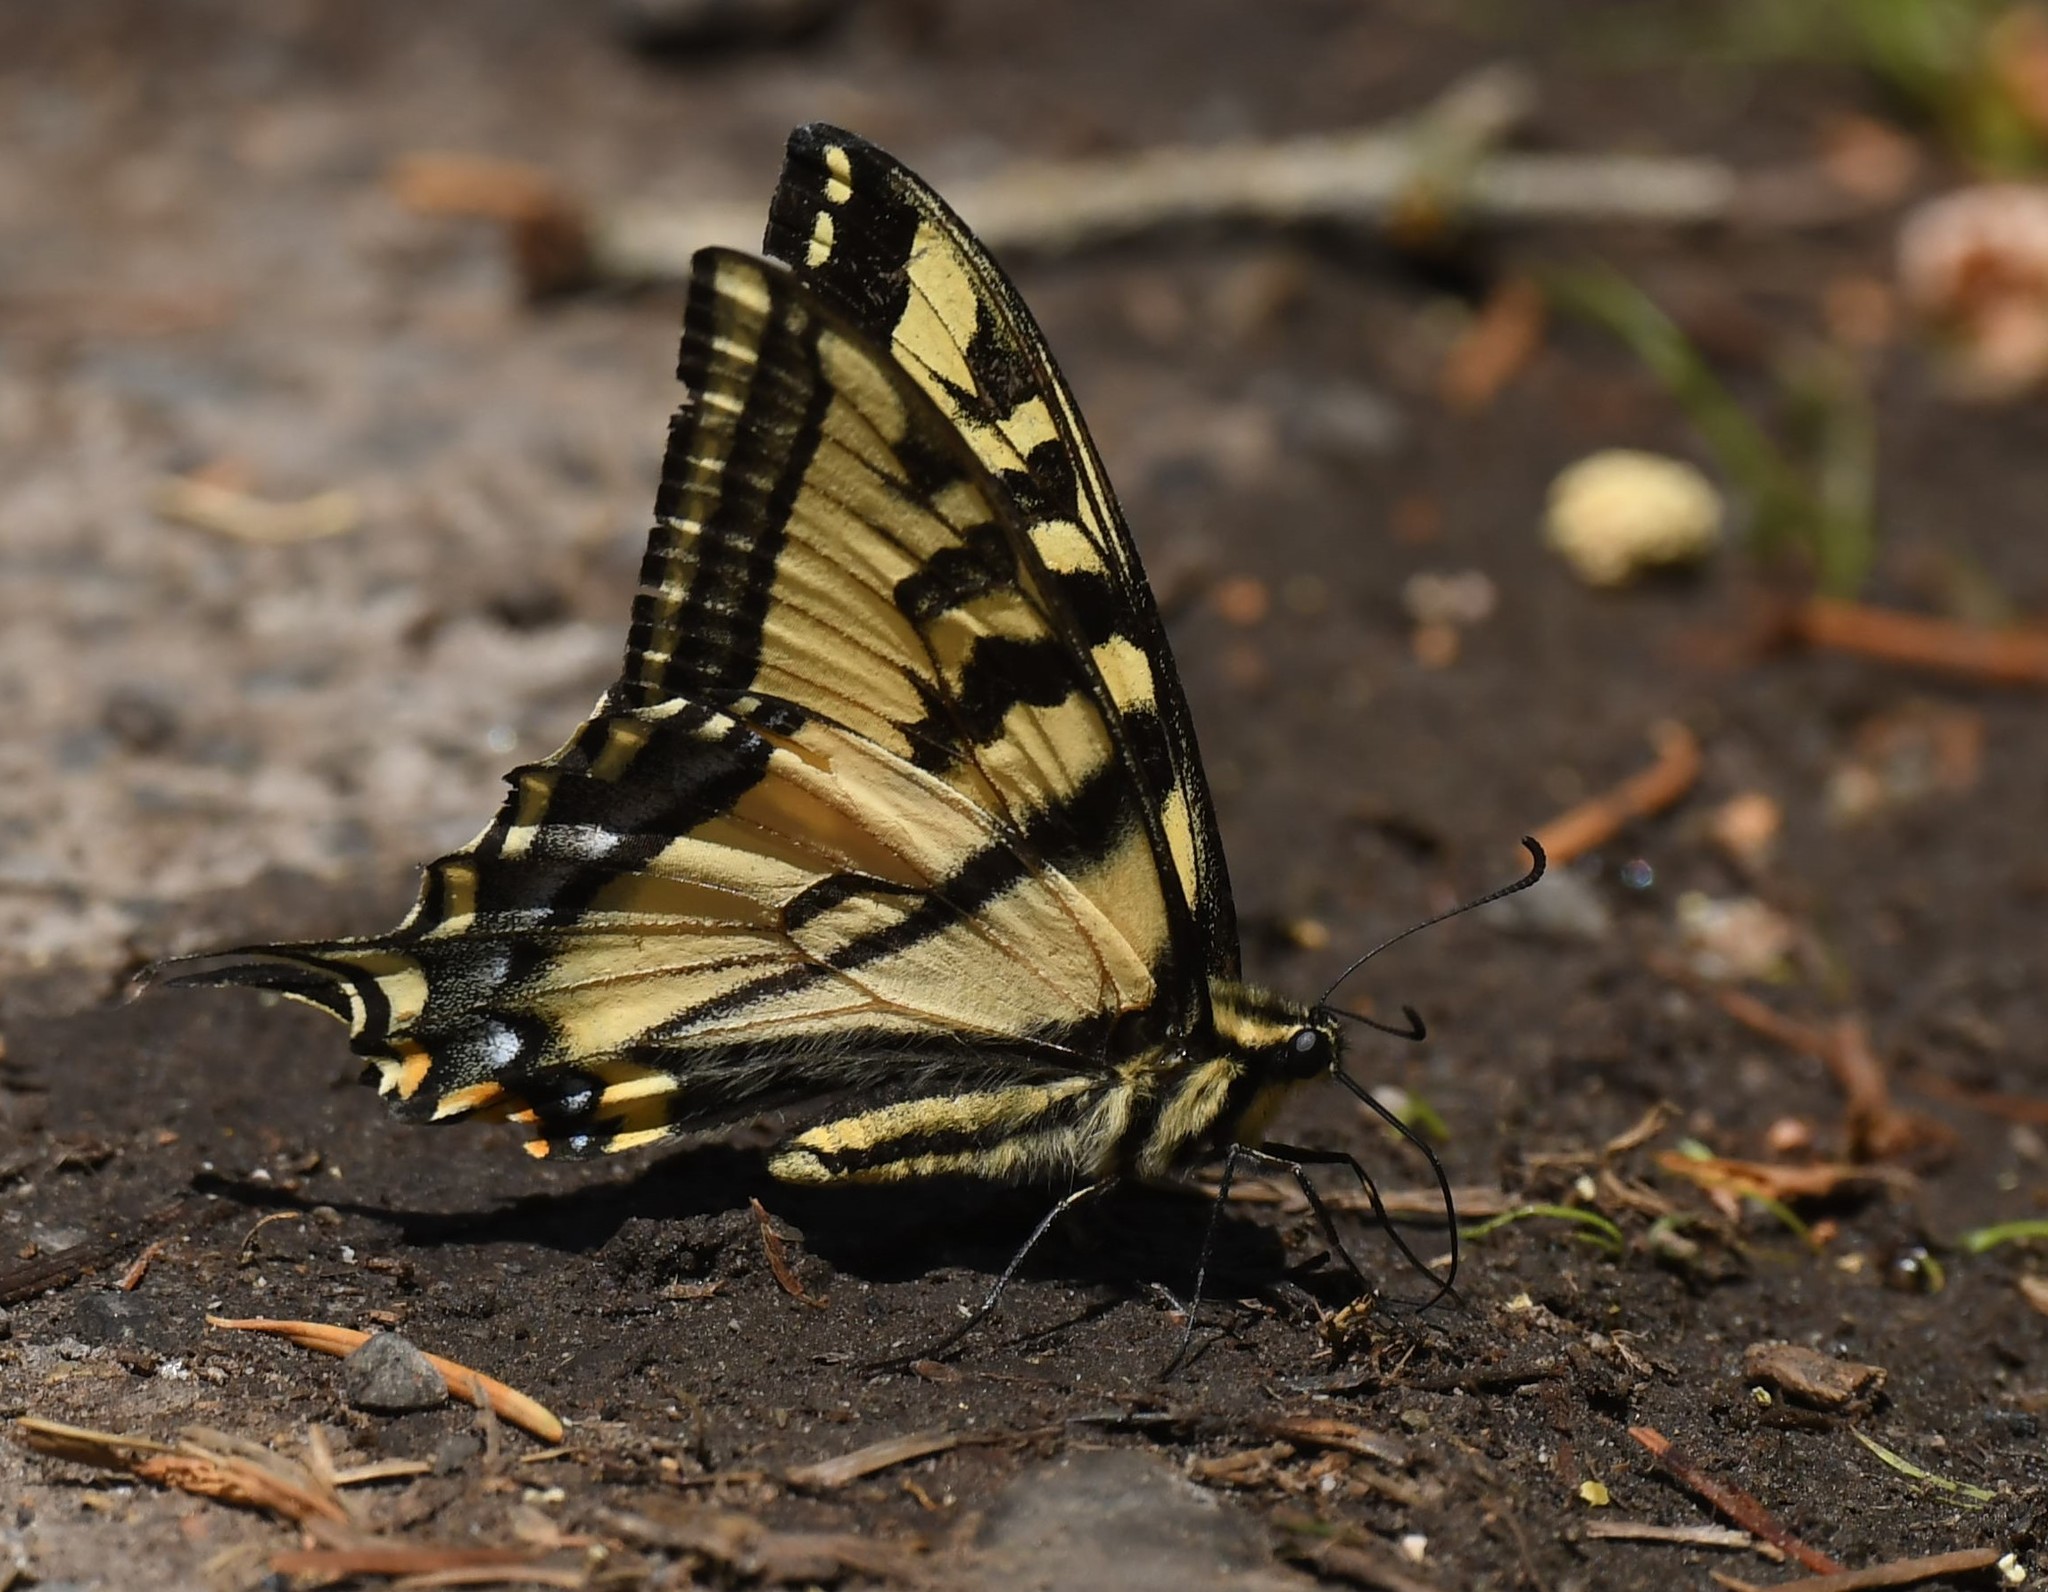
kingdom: Animalia
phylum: Arthropoda
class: Insecta
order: Lepidoptera
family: Papilionidae
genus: Papilio
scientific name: Papilio rutulus
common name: Western tiger swallowtail
